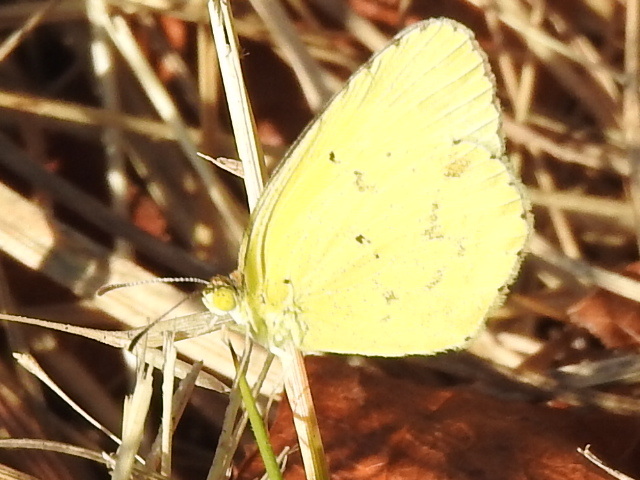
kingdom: Animalia
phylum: Arthropoda
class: Insecta
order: Lepidoptera
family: Pieridae
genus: Pyrisitia
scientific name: Pyrisitia lisa
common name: Little yellow
